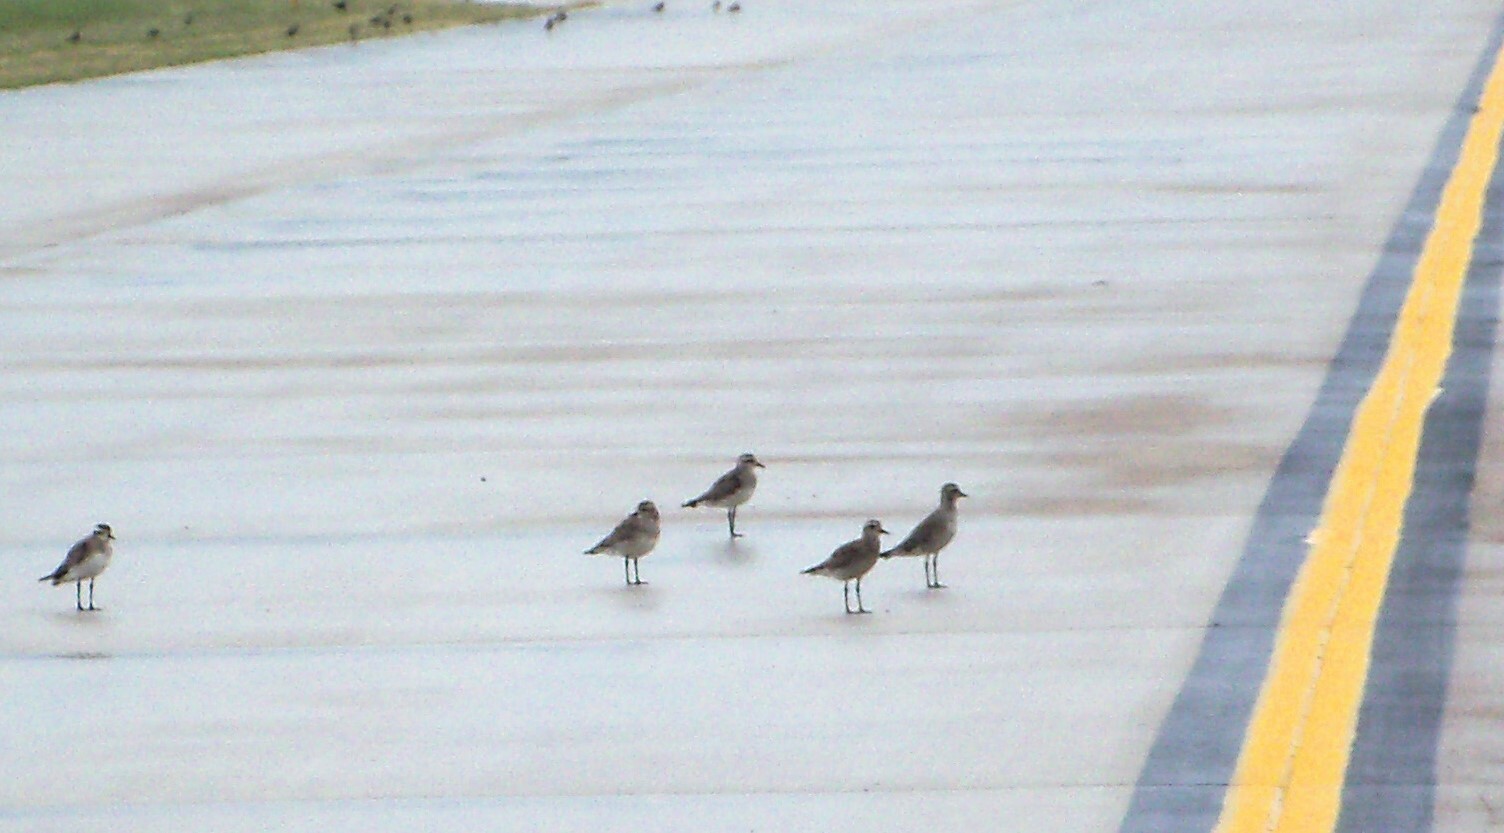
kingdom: Animalia
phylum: Chordata
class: Aves
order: Charadriiformes
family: Charadriidae
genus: Pluvialis
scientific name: Pluvialis dominica
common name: American golden plover
